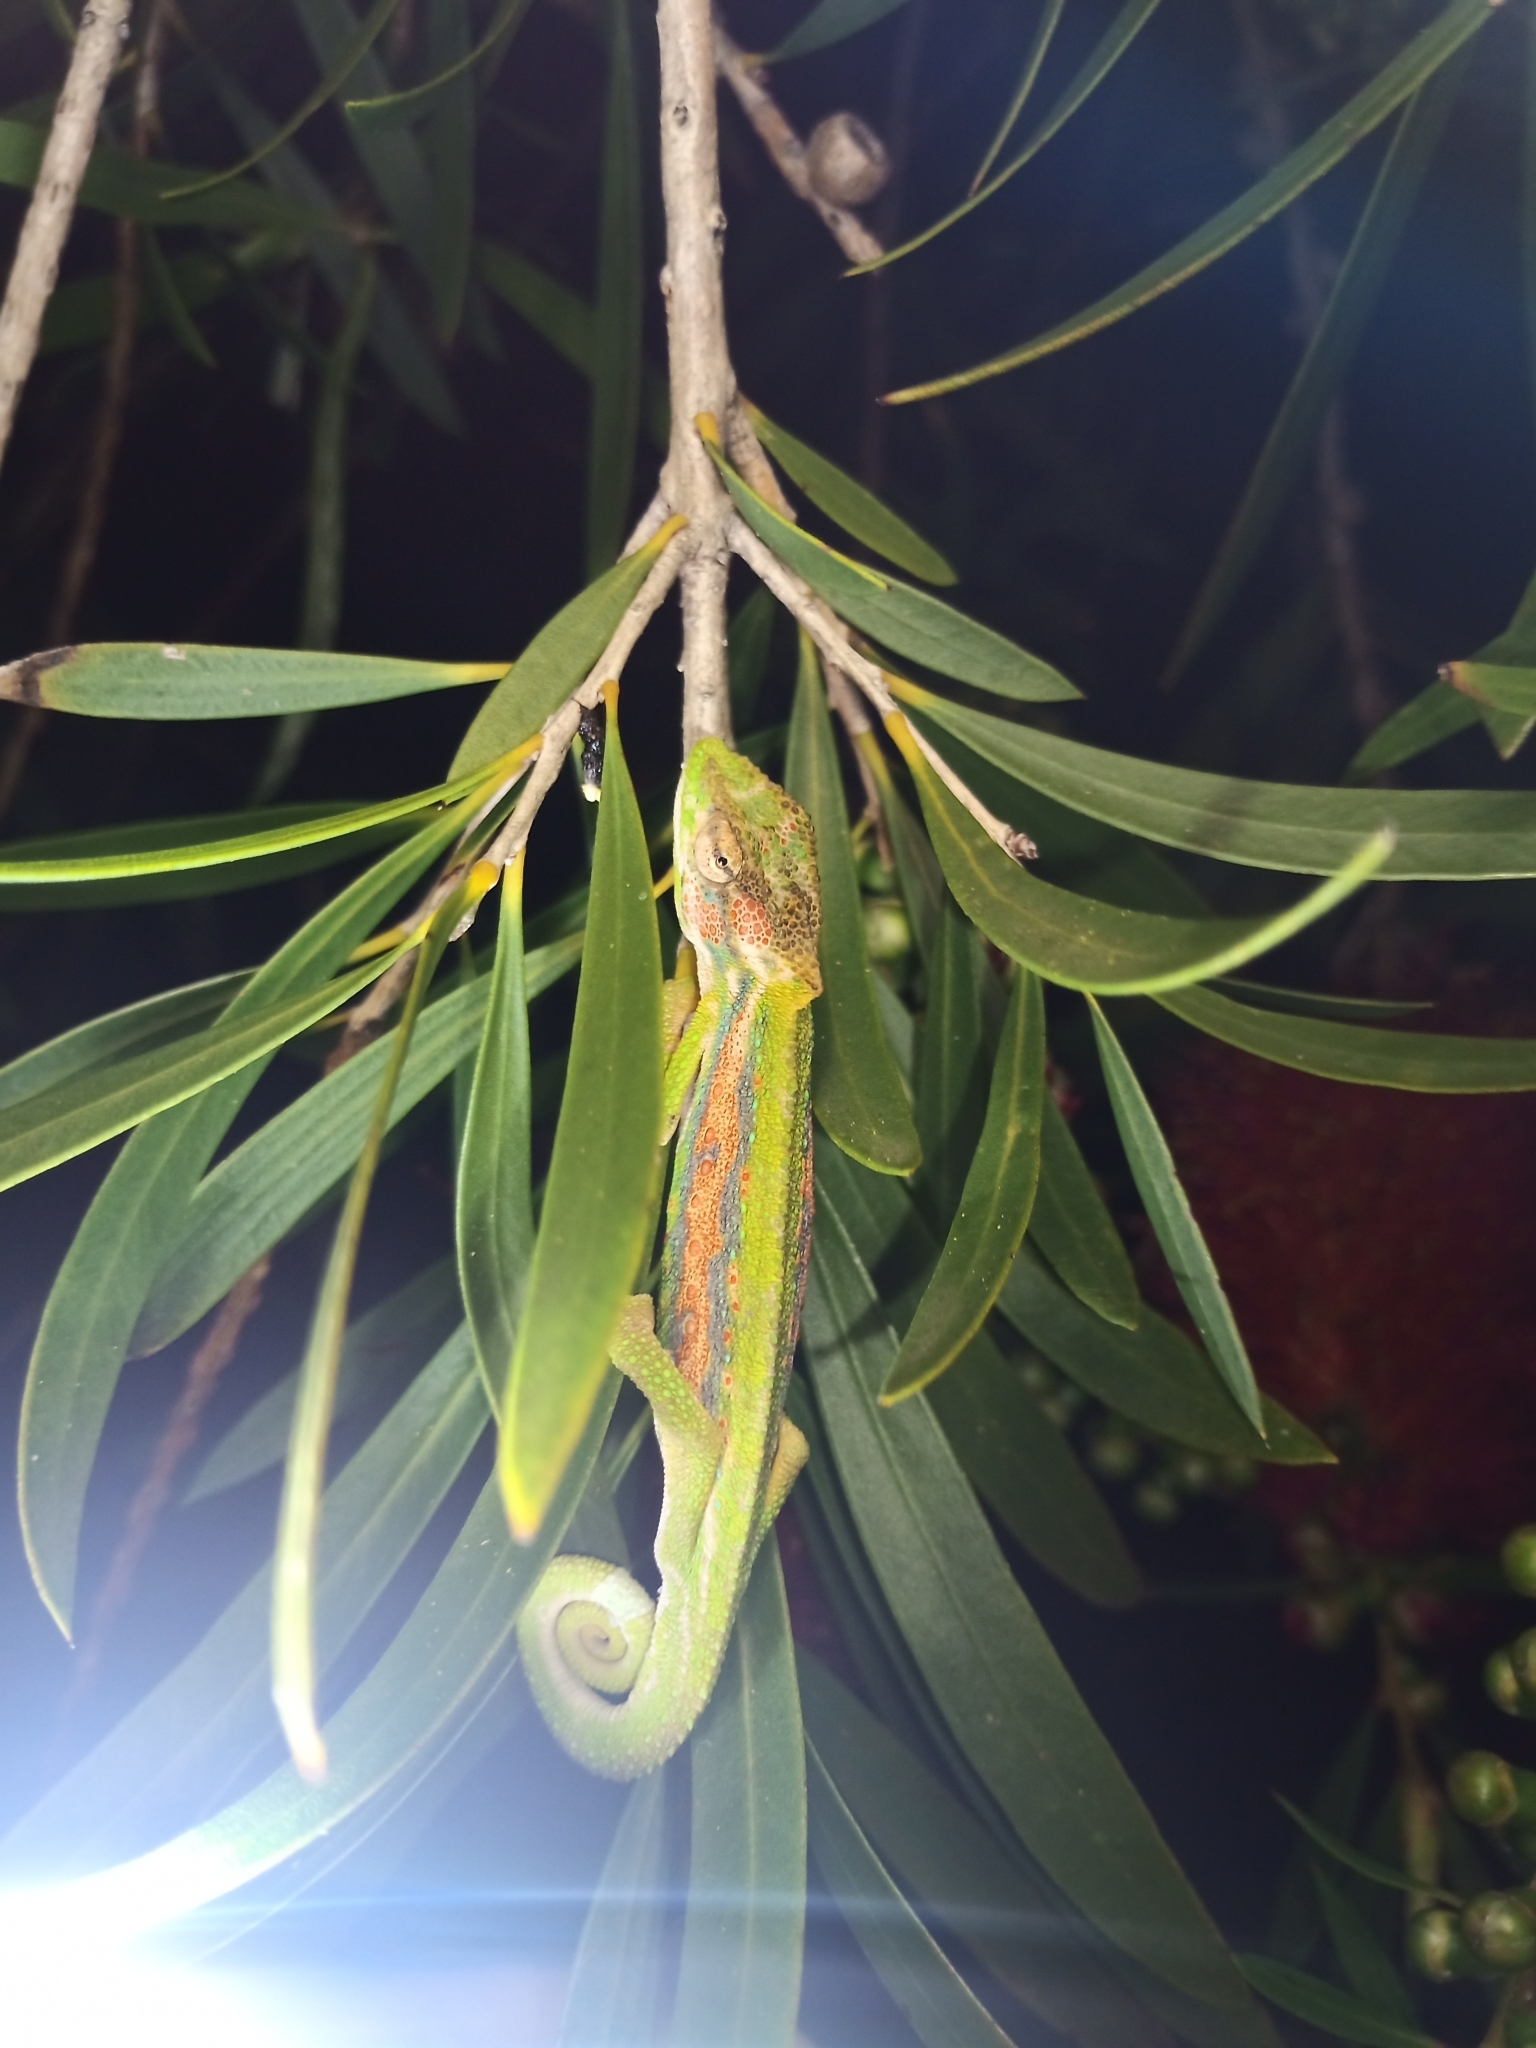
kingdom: Animalia
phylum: Chordata
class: Squamata
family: Chamaeleonidae
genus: Bradypodion
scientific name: Bradypodion pumilum
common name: Cape dwarf chameleon
